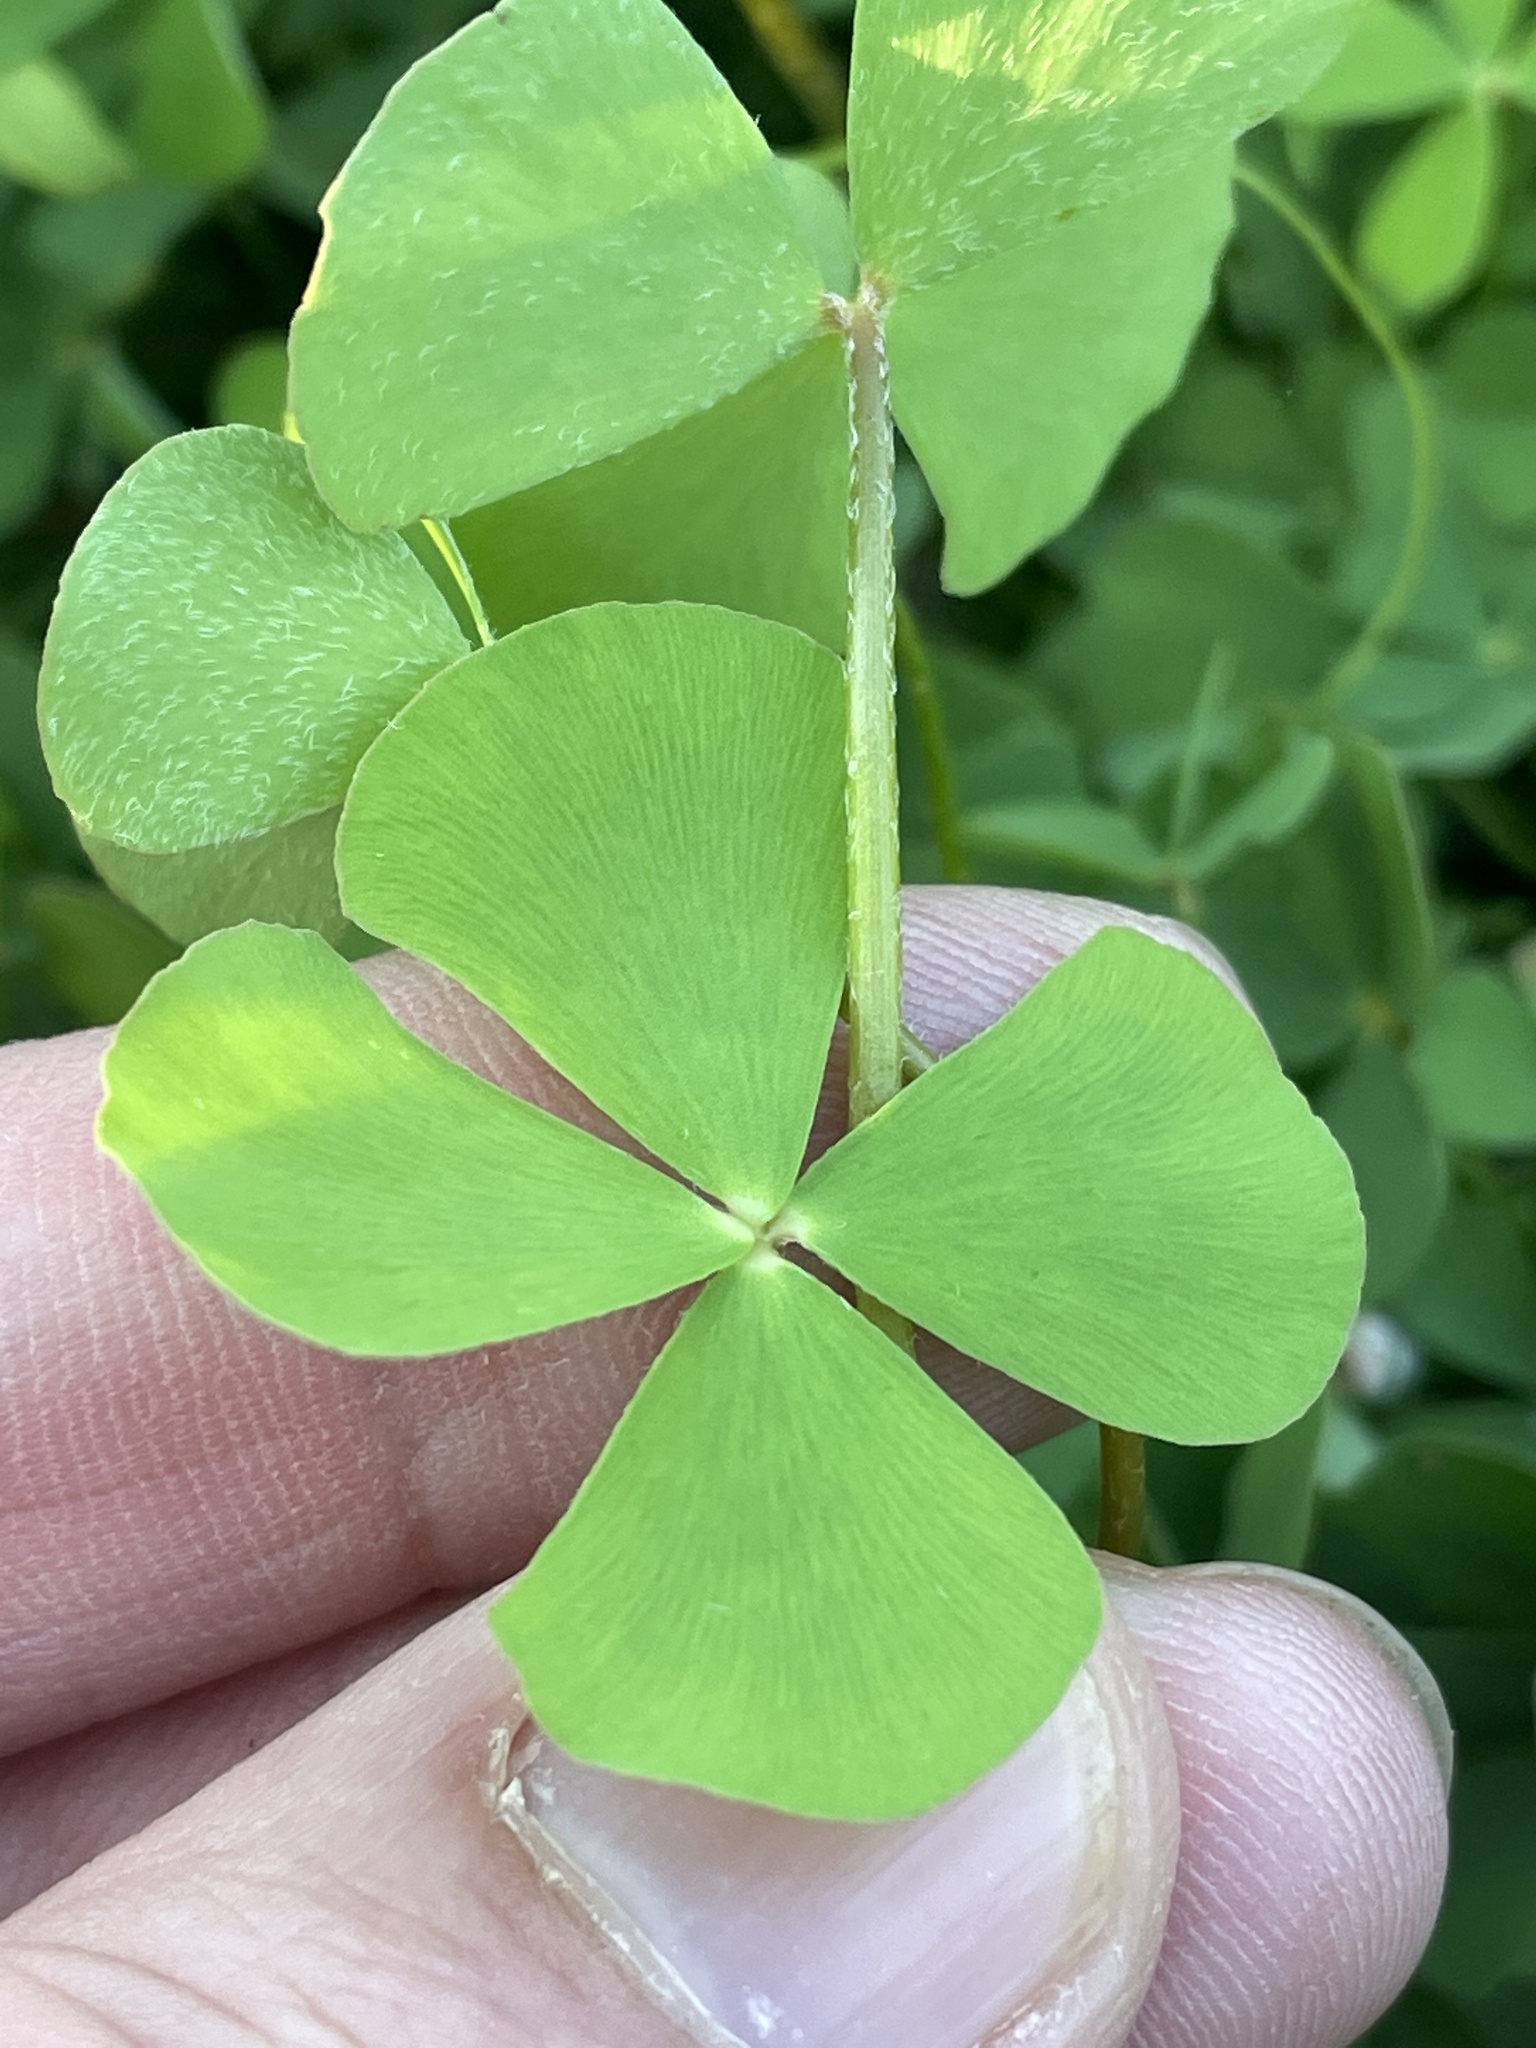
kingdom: Plantae
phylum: Tracheophyta
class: Polypodiopsida
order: Salviniales
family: Marsileaceae
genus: Marsilea
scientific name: Marsilea vestita
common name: Hooked-pepperwort
